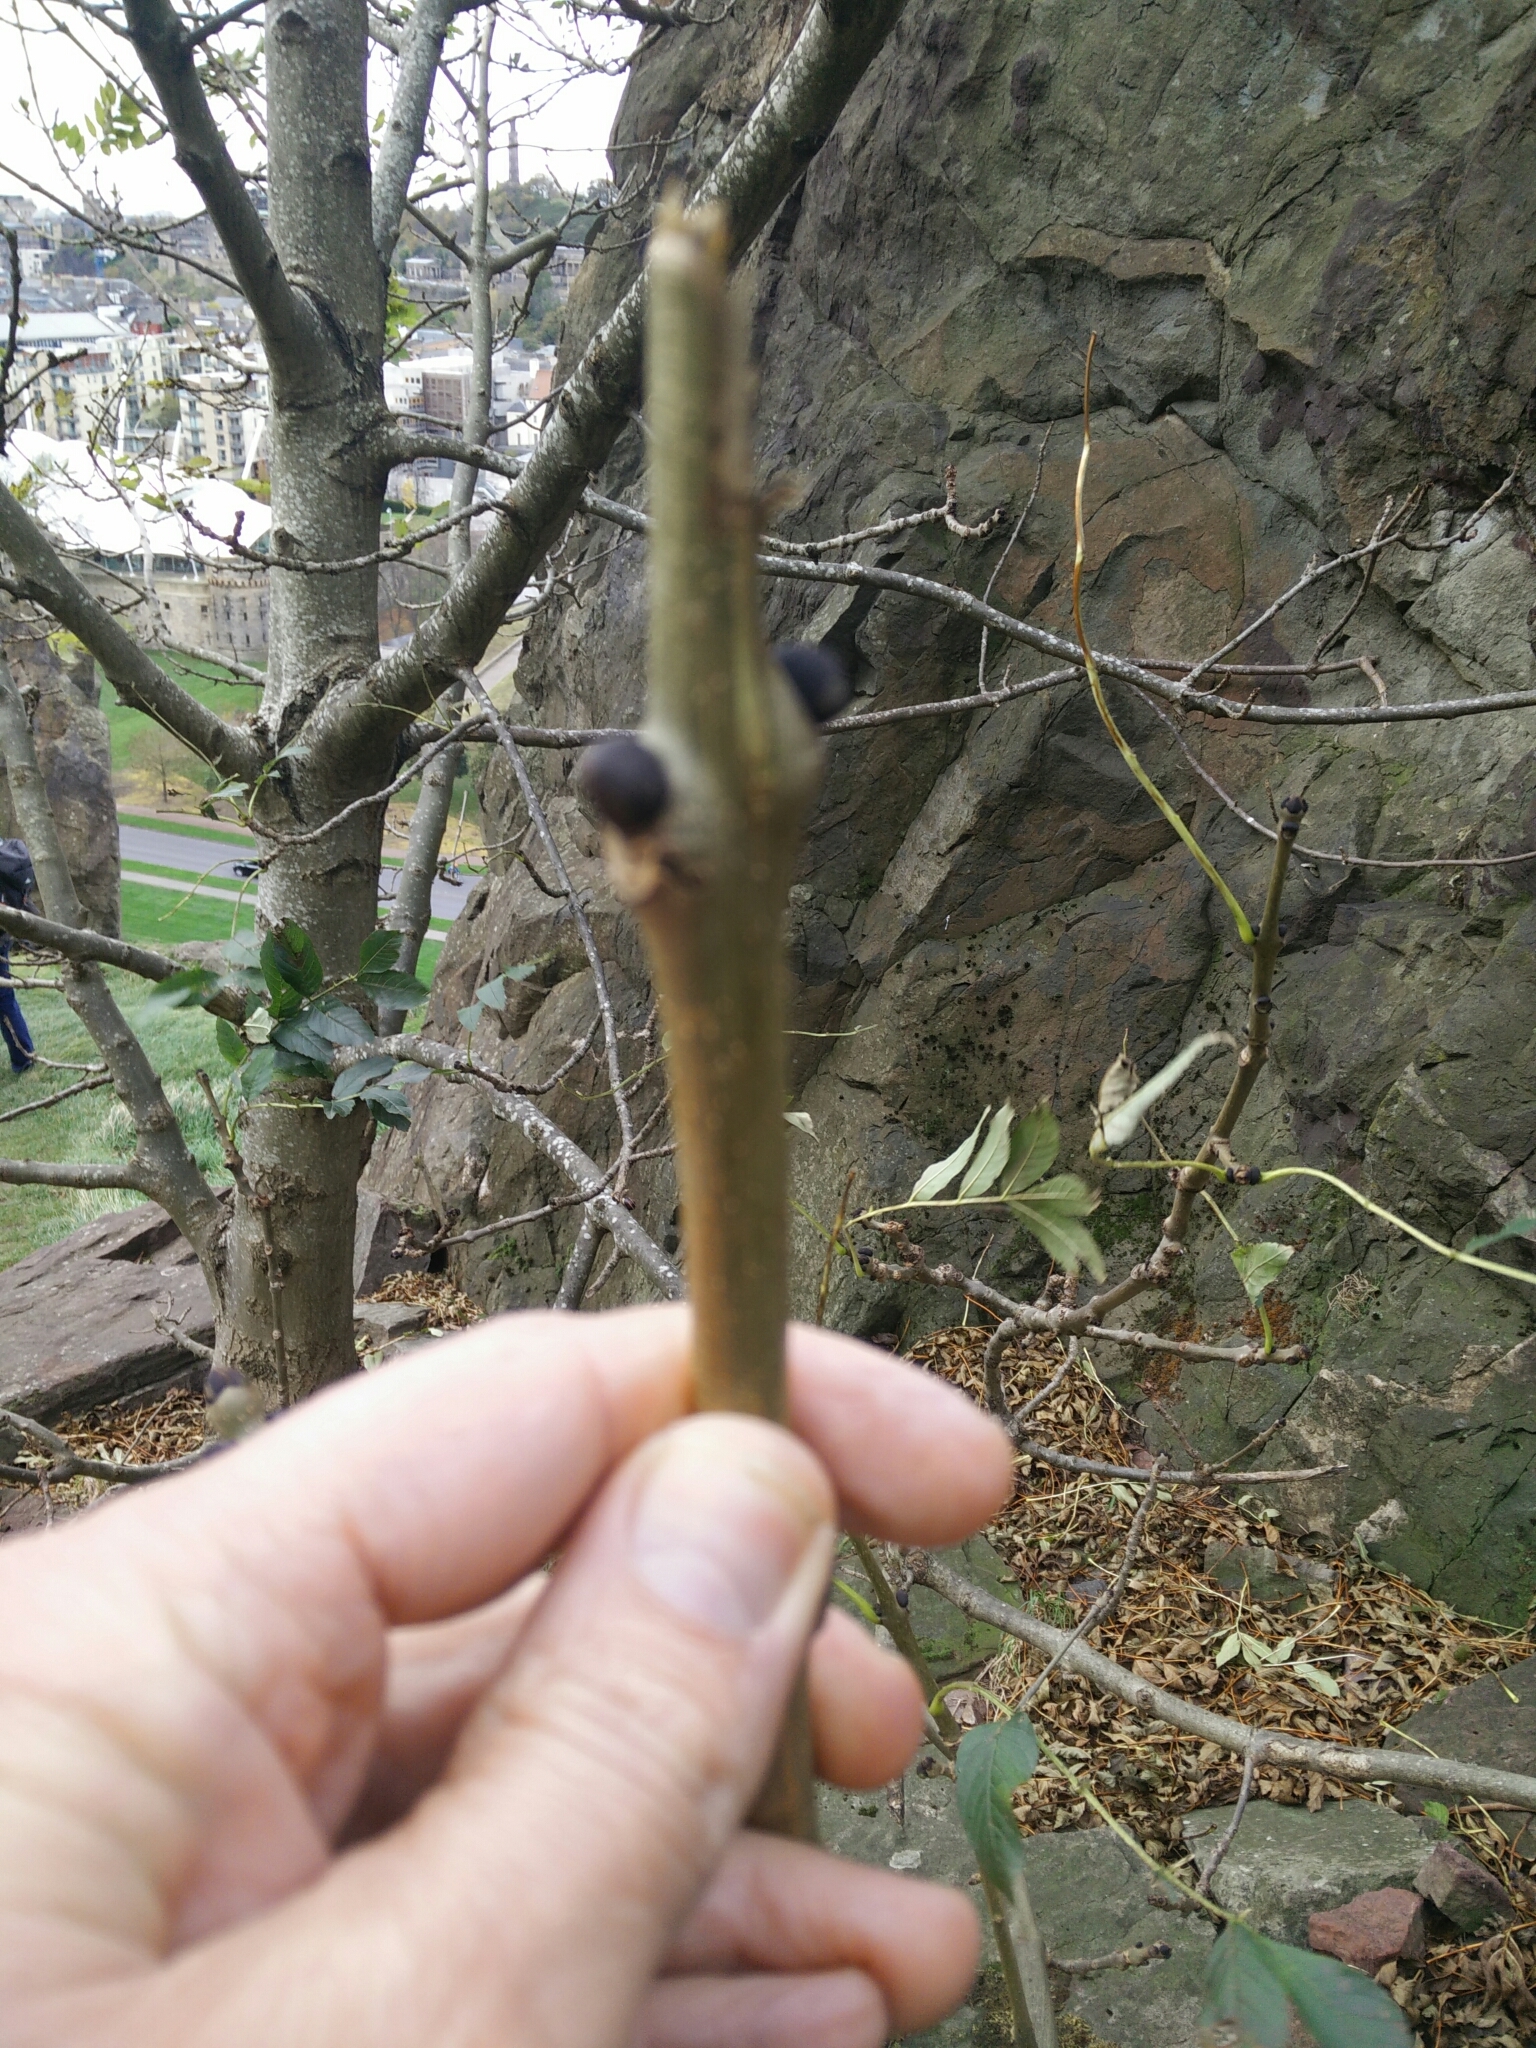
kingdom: Plantae
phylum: Tracheophyta
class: Magnoliopsida
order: Lamiales
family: Oleaceae
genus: Fraxinus
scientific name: Fraxinus excelsior
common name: European ash
